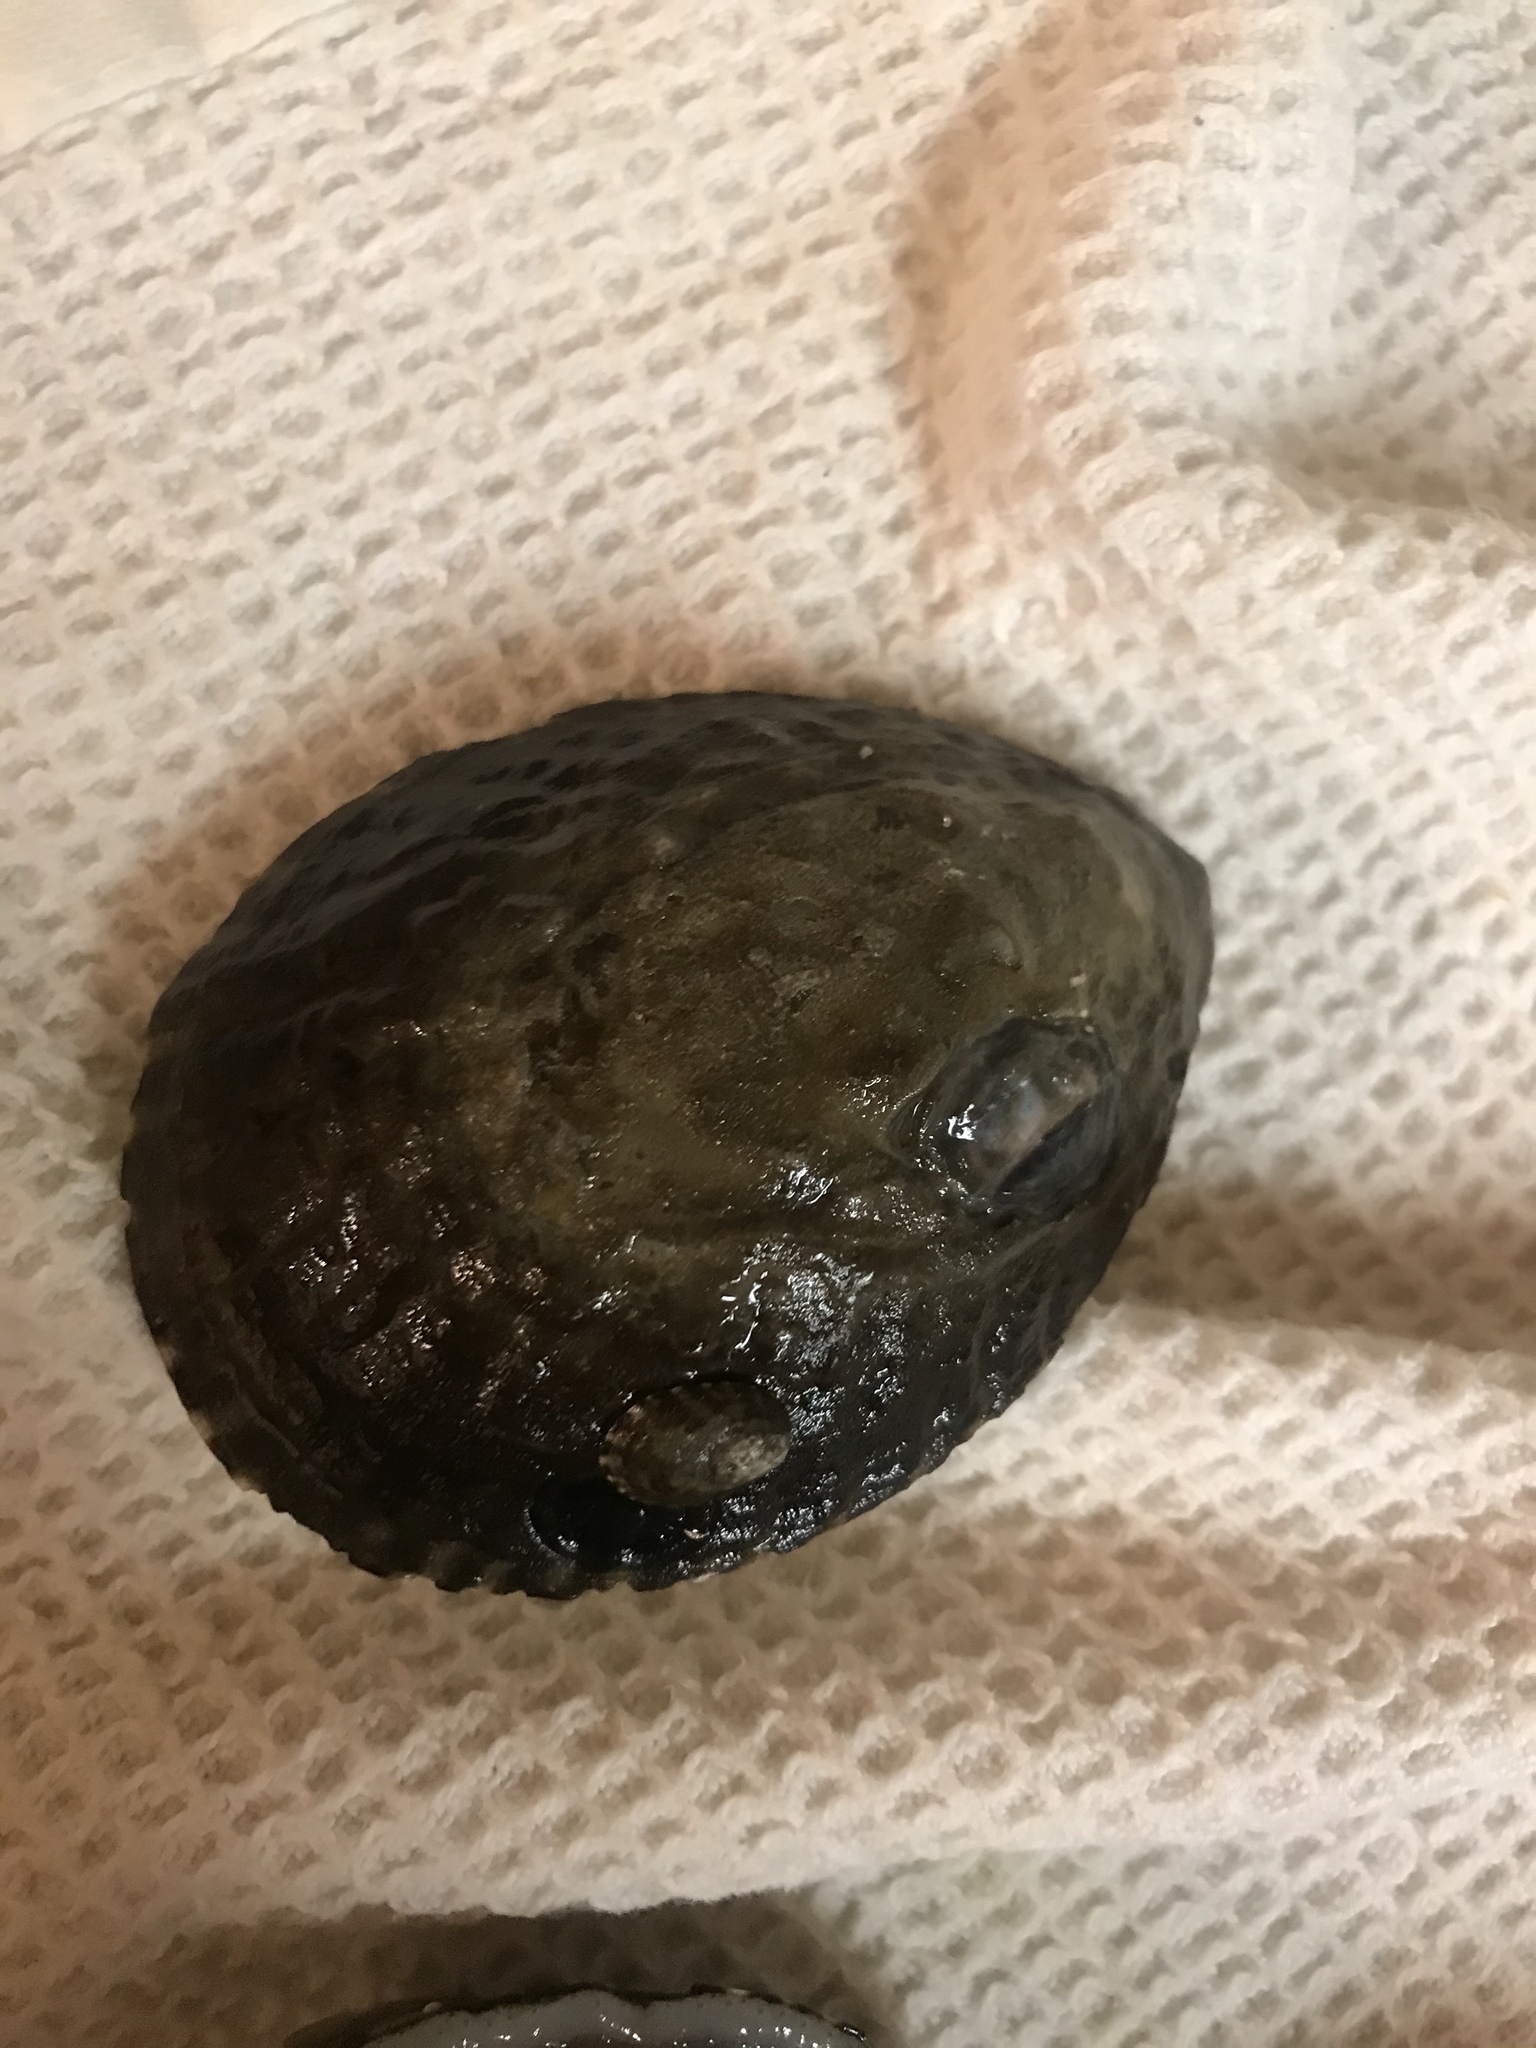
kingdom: Animalia
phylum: Mollusca
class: Gastropoda
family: Lottiidae
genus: Lottia
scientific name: Lottia gigantea
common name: Owl limpet
